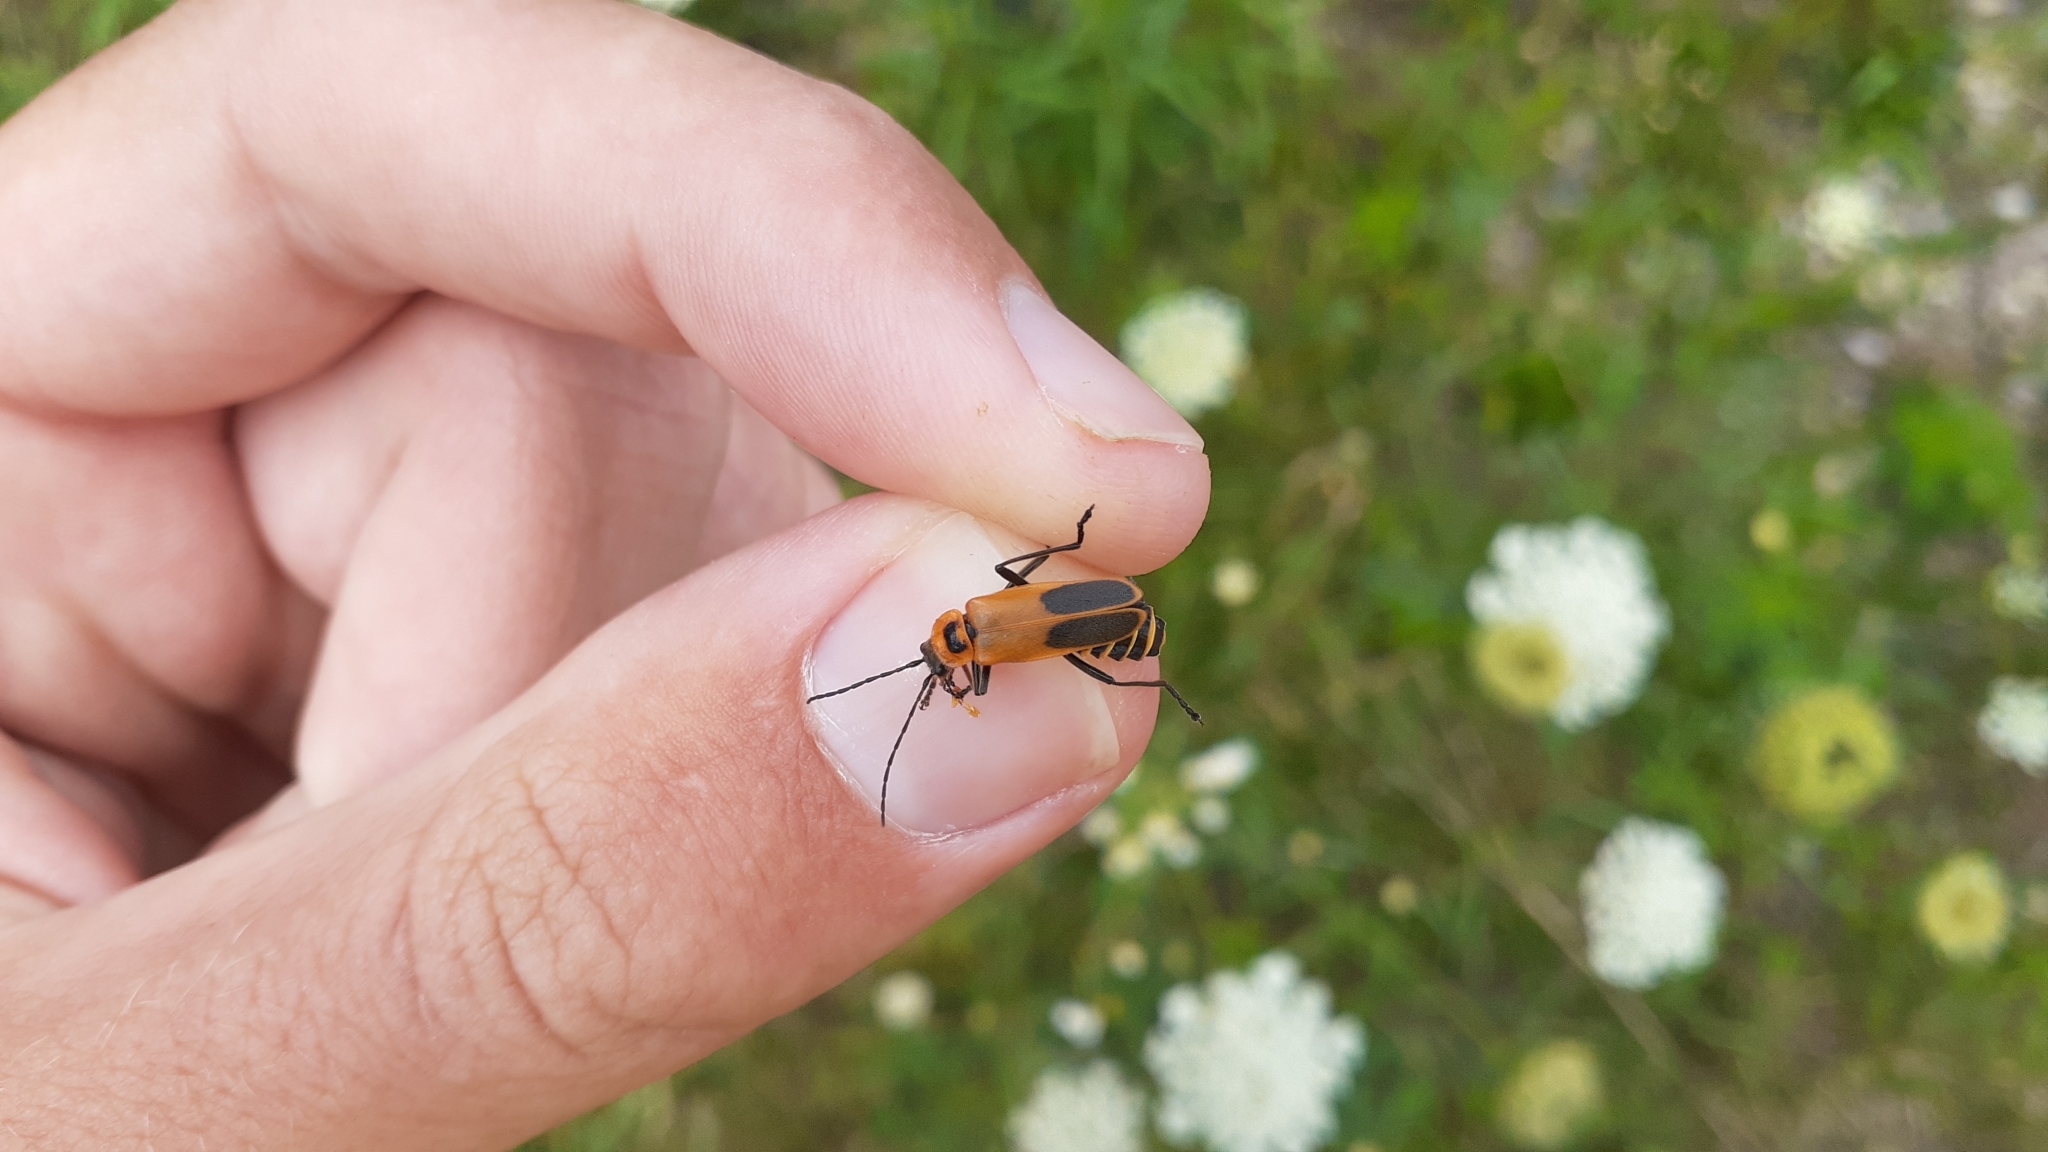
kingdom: Animalia
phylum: Arthropoda
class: Insecta
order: Coleoptera
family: Cantharidae
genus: Chauliognathus
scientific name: Chauliognathus pensylvanicus
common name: Goldenrod soldier beetle
